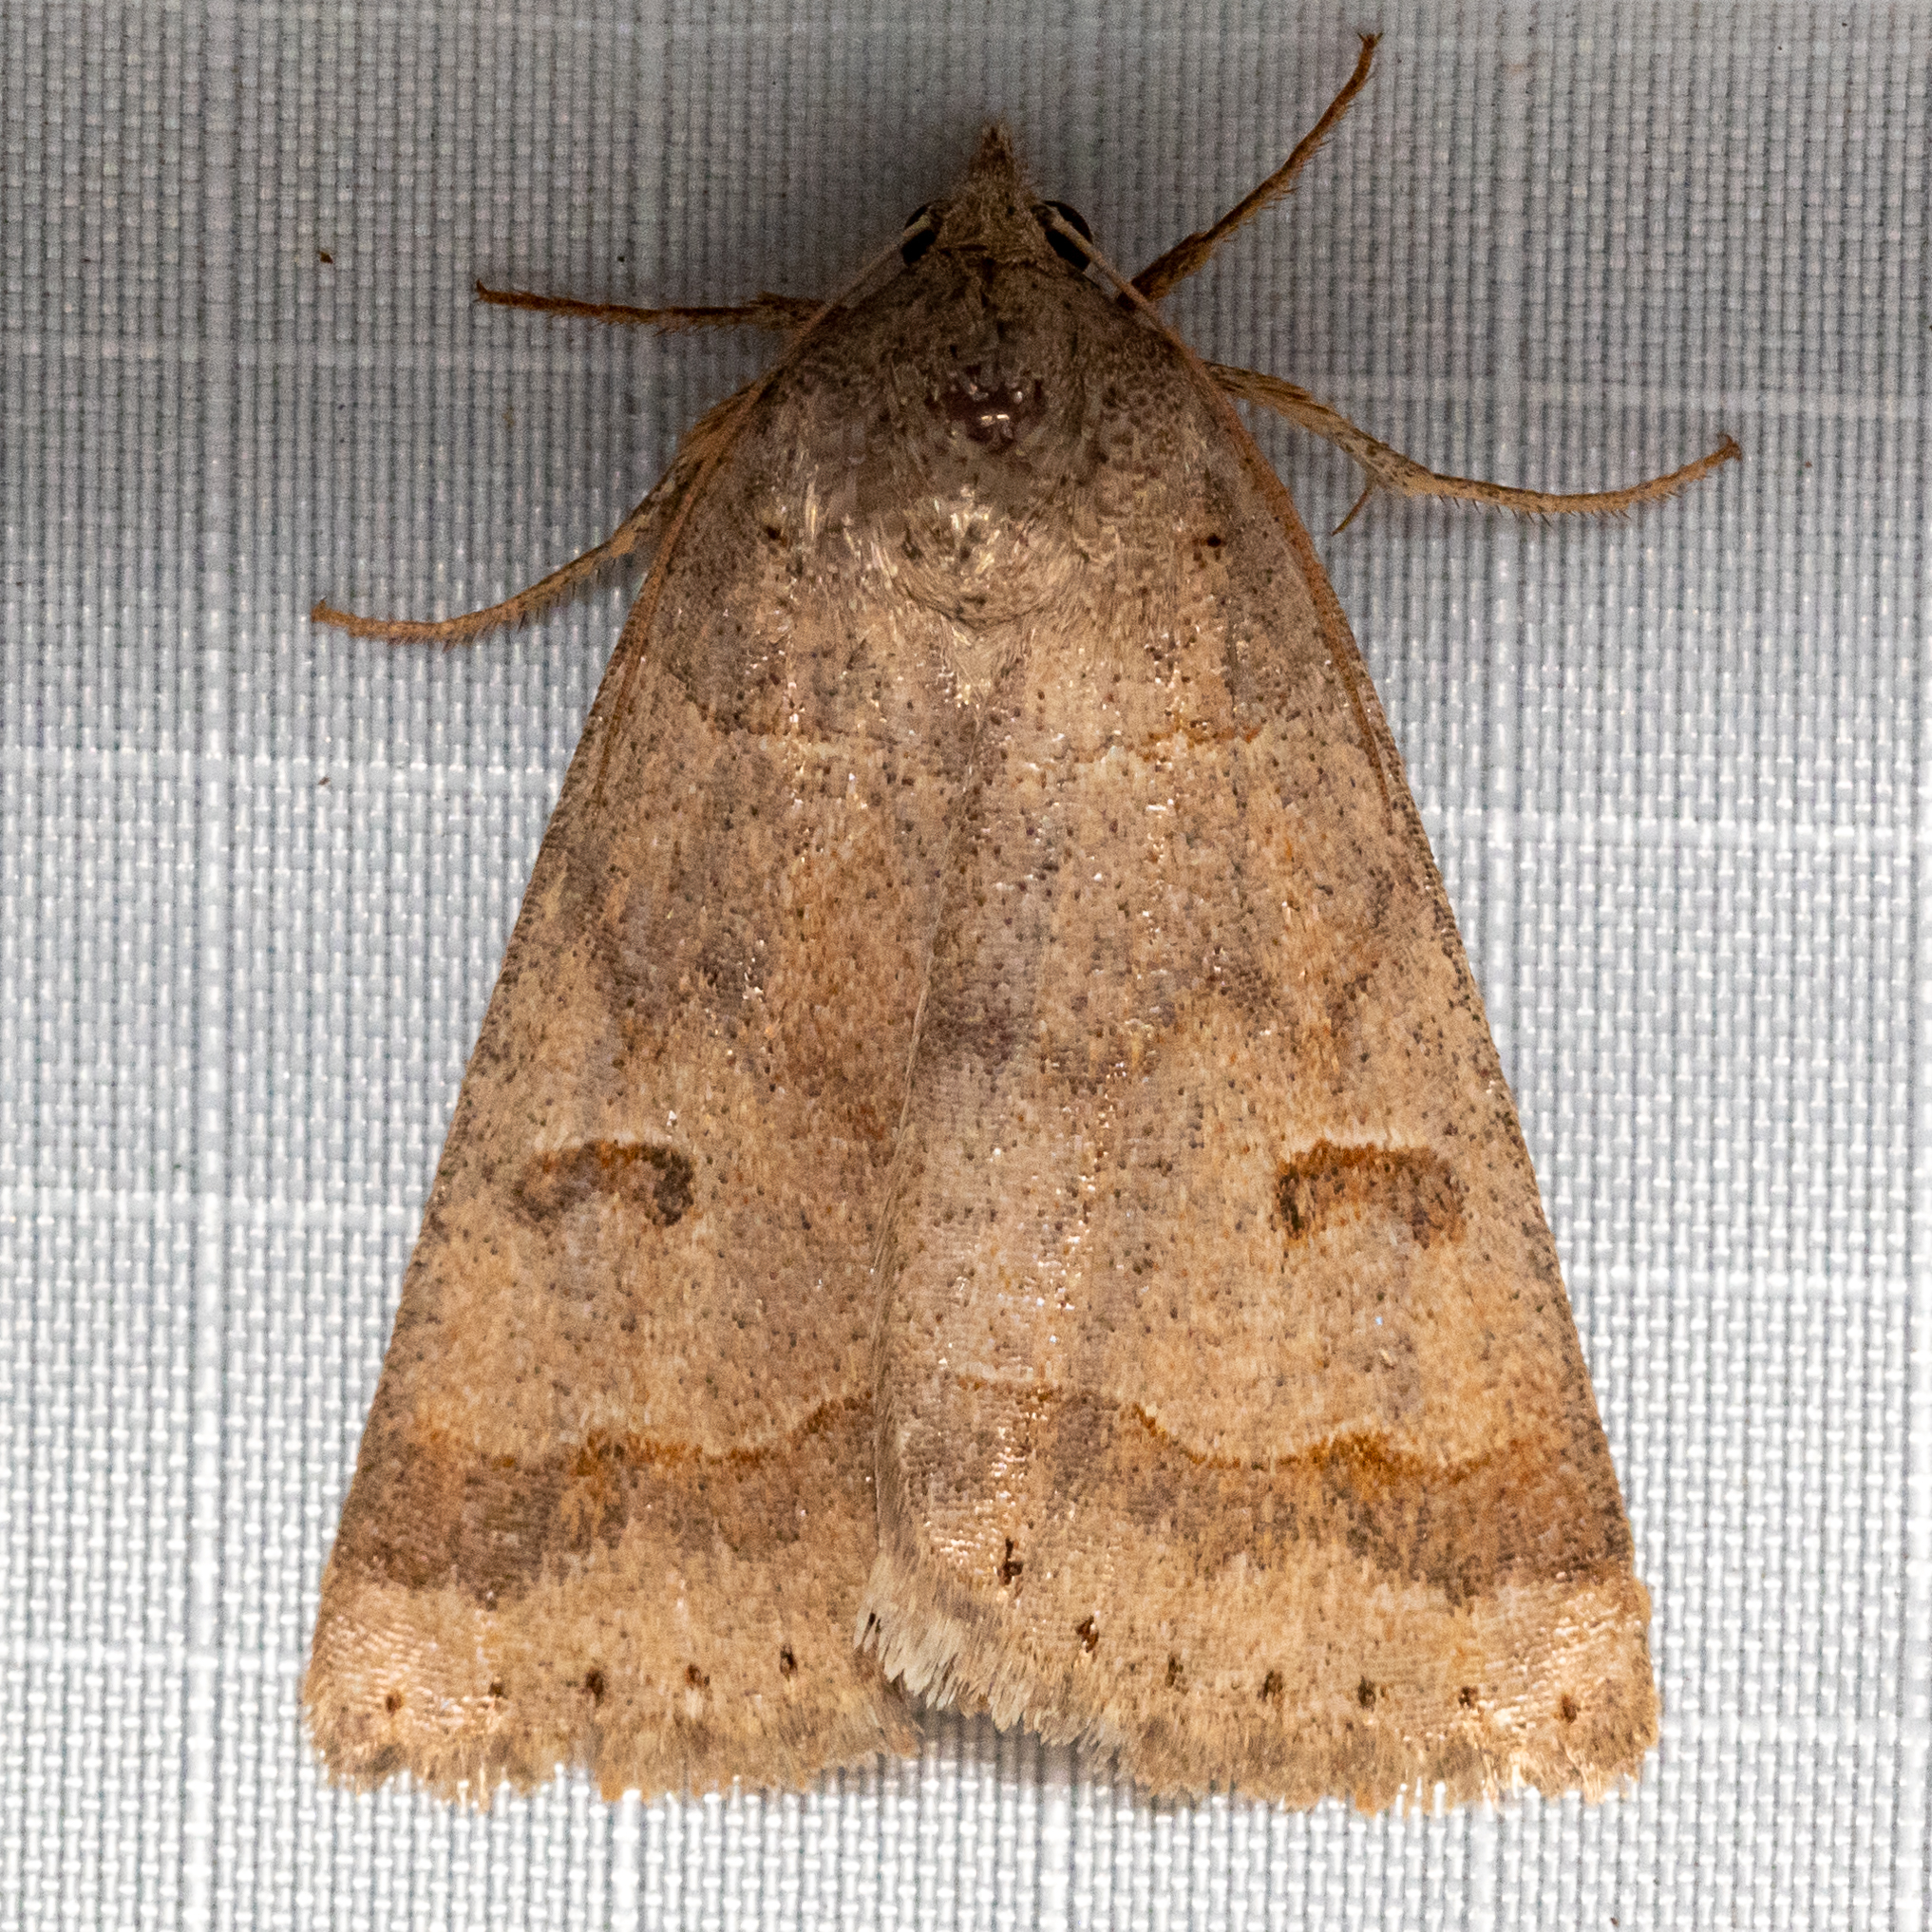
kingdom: Animalia
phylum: Arthropoda
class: Insecta
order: Lepidoptera
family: Erebidae
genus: Phoberia
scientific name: Phoberia atomaris
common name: Common oak moth
